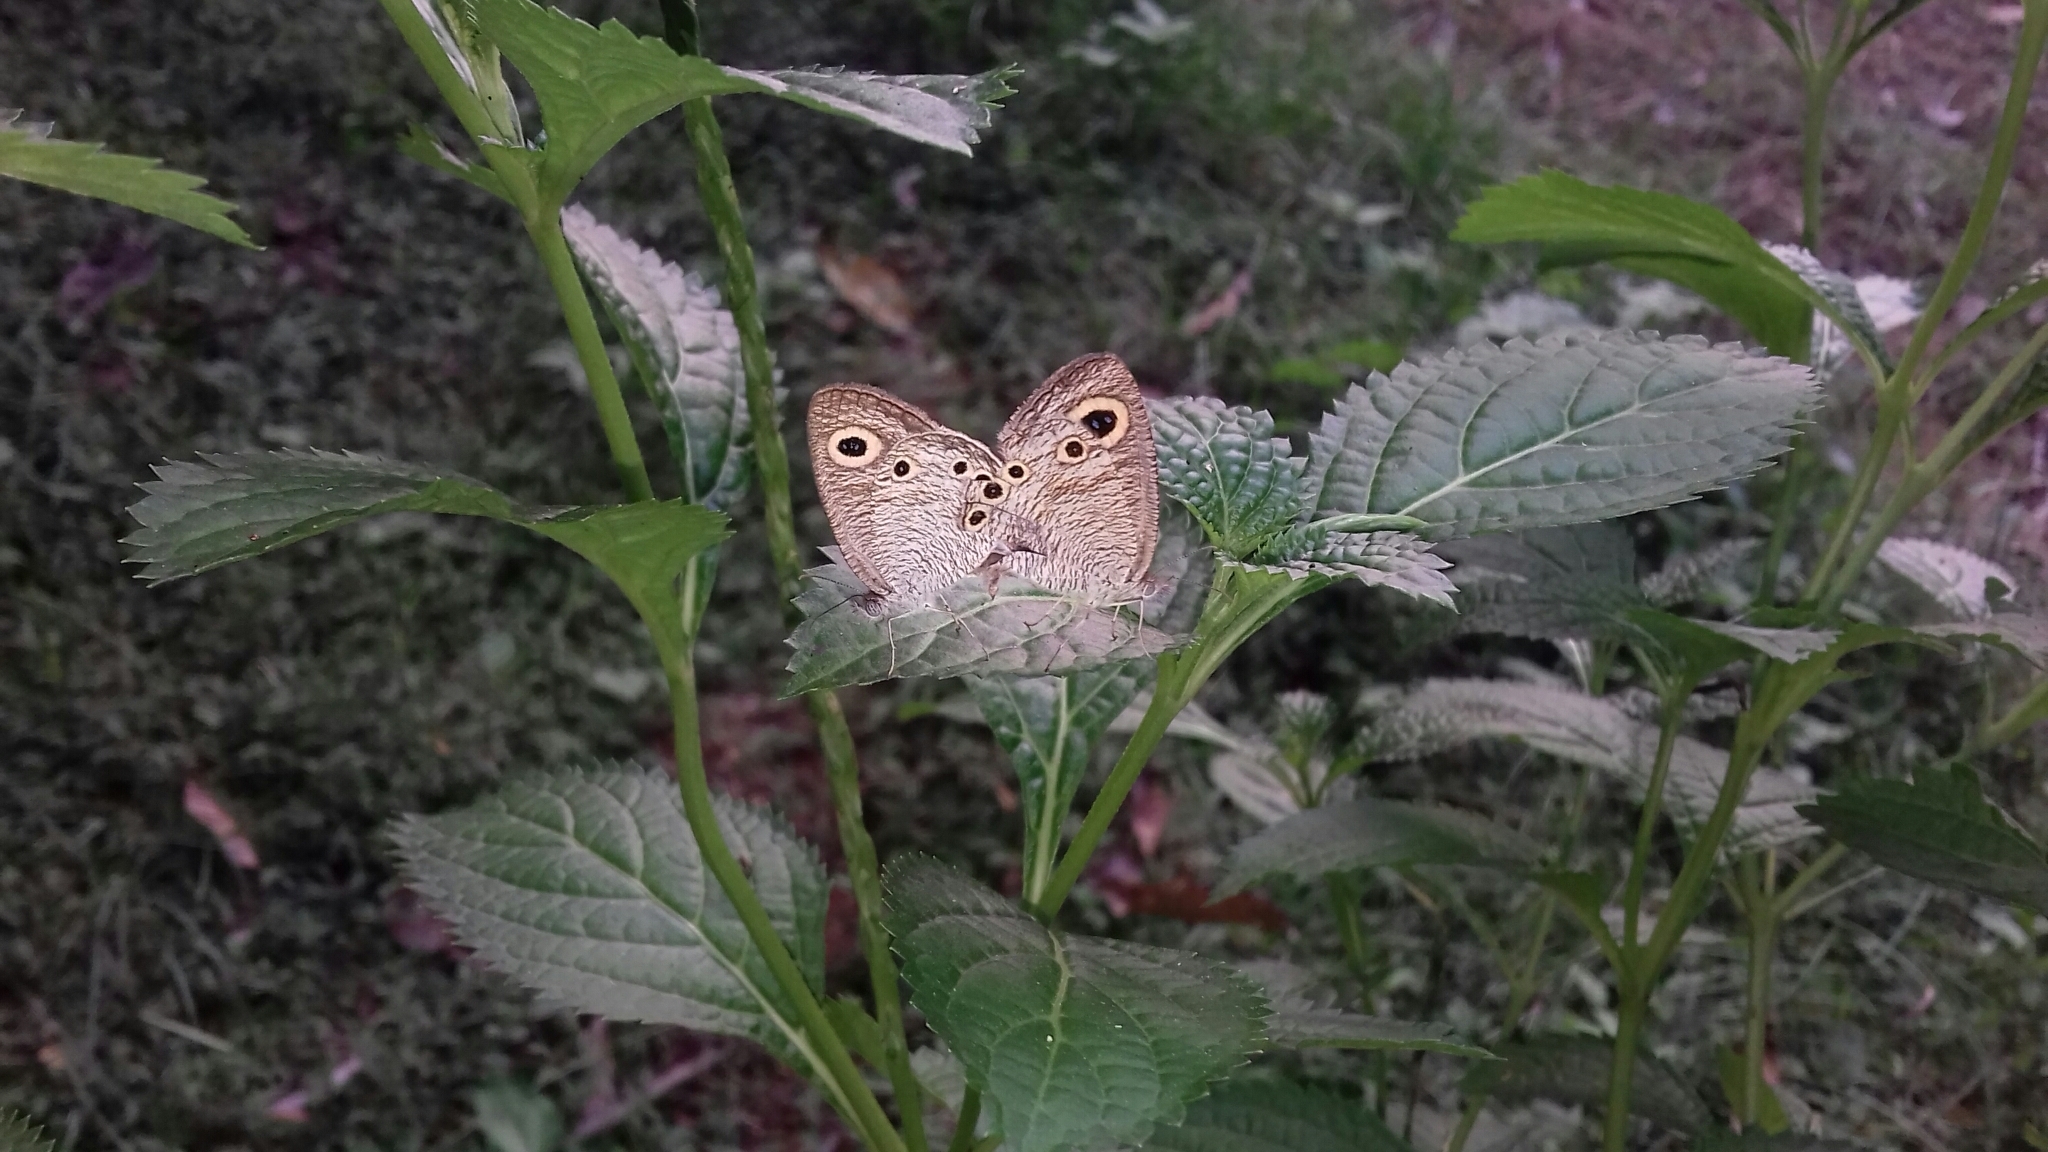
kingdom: Animalia
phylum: Arthropoda
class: Insecta
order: Lepidoptera
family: Nymphalidae
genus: Ypthima
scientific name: Ypthima huebneri
